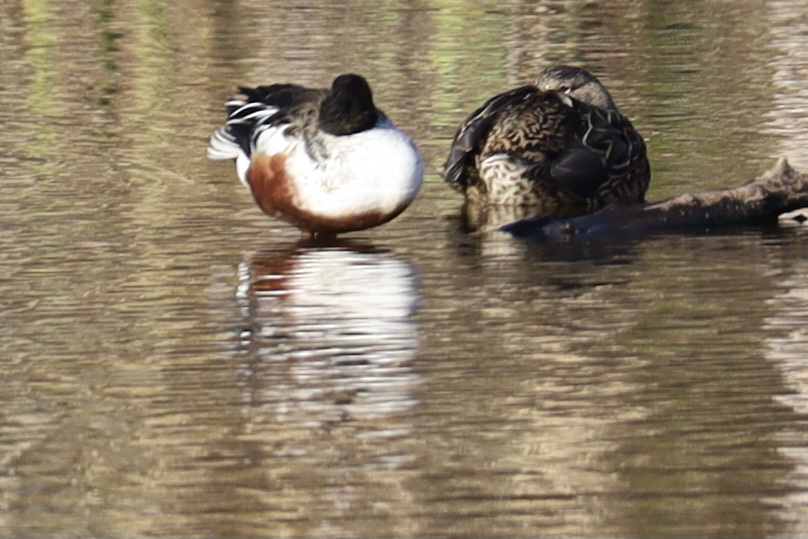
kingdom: Animalia
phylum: Chordata
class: Aves
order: Anseriformes
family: Anatidae
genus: Spatula
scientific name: Spatula clypeata
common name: Northern shoveler
